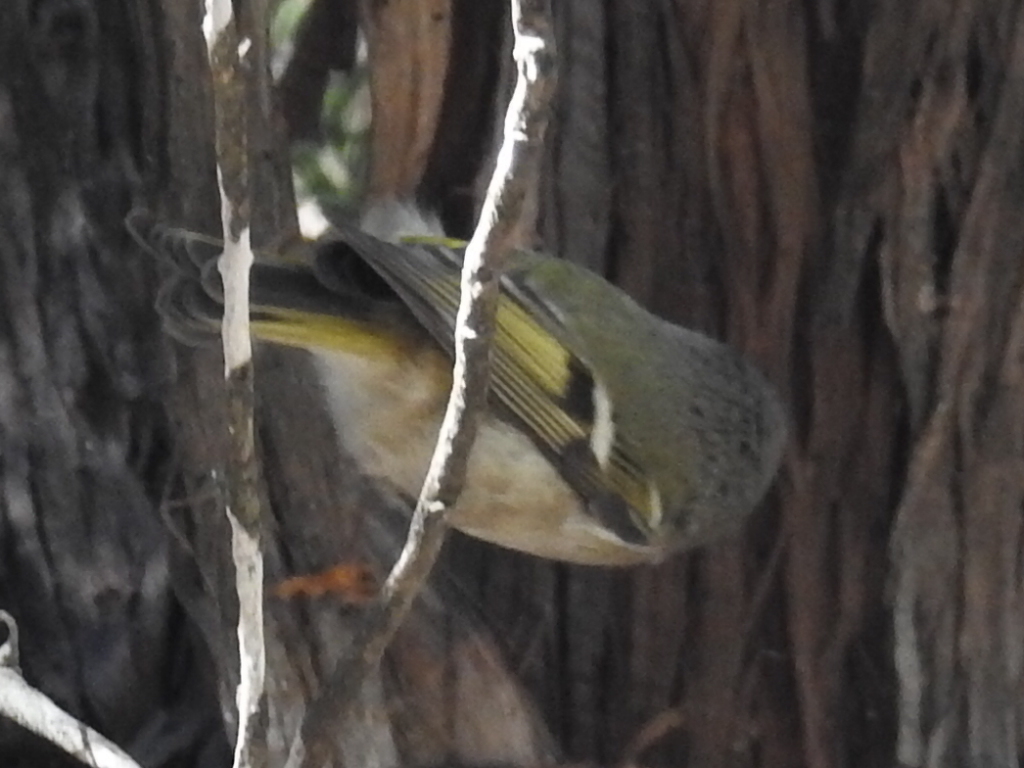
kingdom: Animalia
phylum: Chordata
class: Aves
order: Passeriformes
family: Regulidae
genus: Regulus
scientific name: Regulus satrapa
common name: Golden-crowned kinglet
